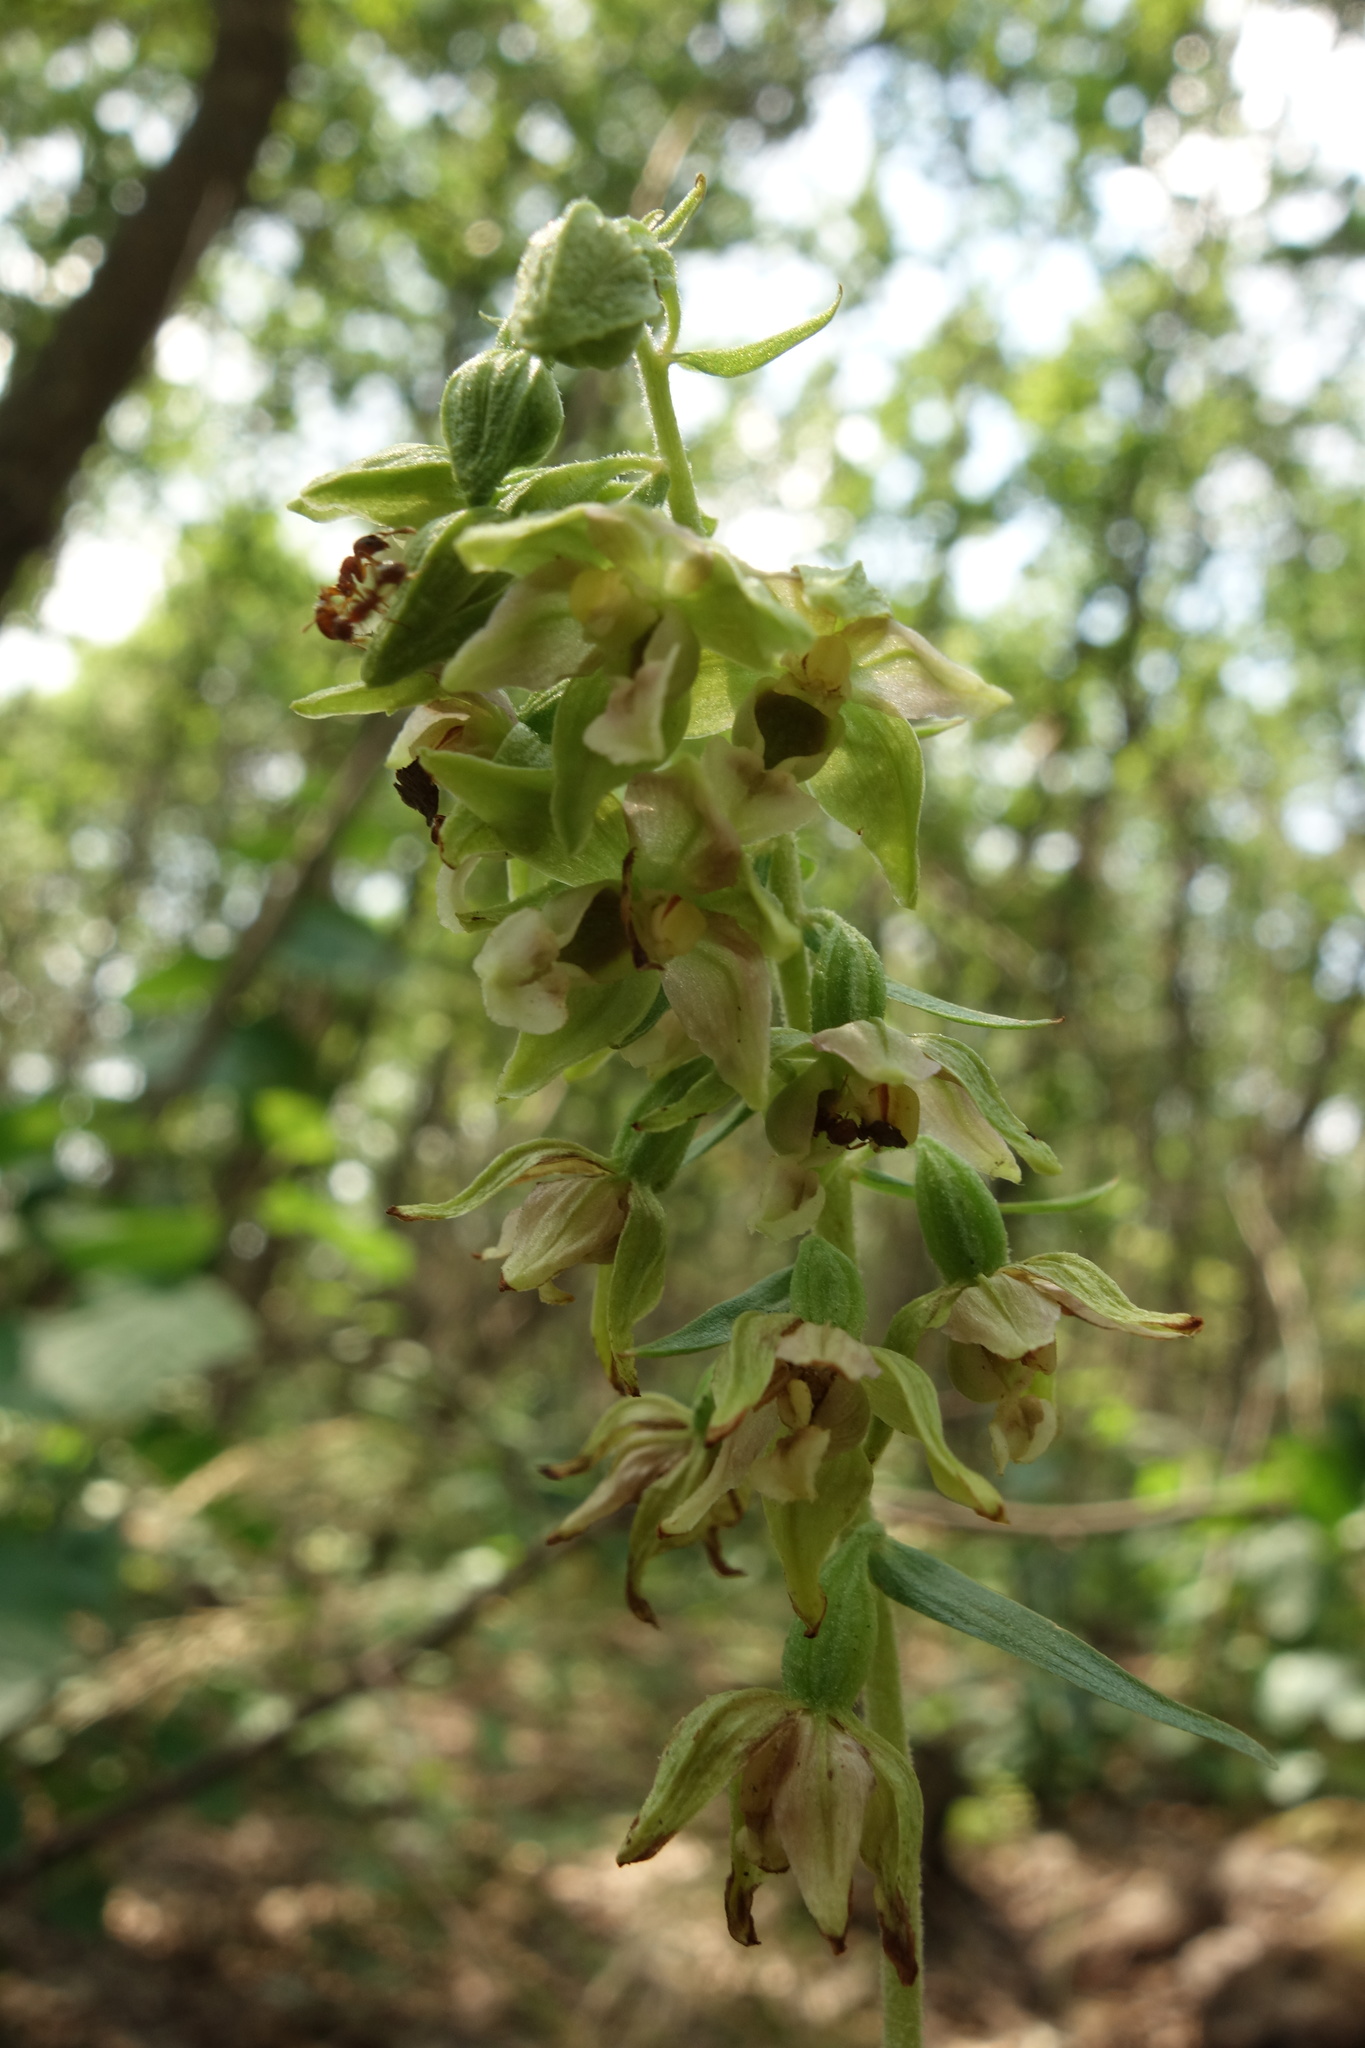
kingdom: Plantae
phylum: Tracheophyta
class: Liliopsida
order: Asparagales
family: Orchidaceae
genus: Epipactis
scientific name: Epipactis helleborine
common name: Broad-leaved helleborine
